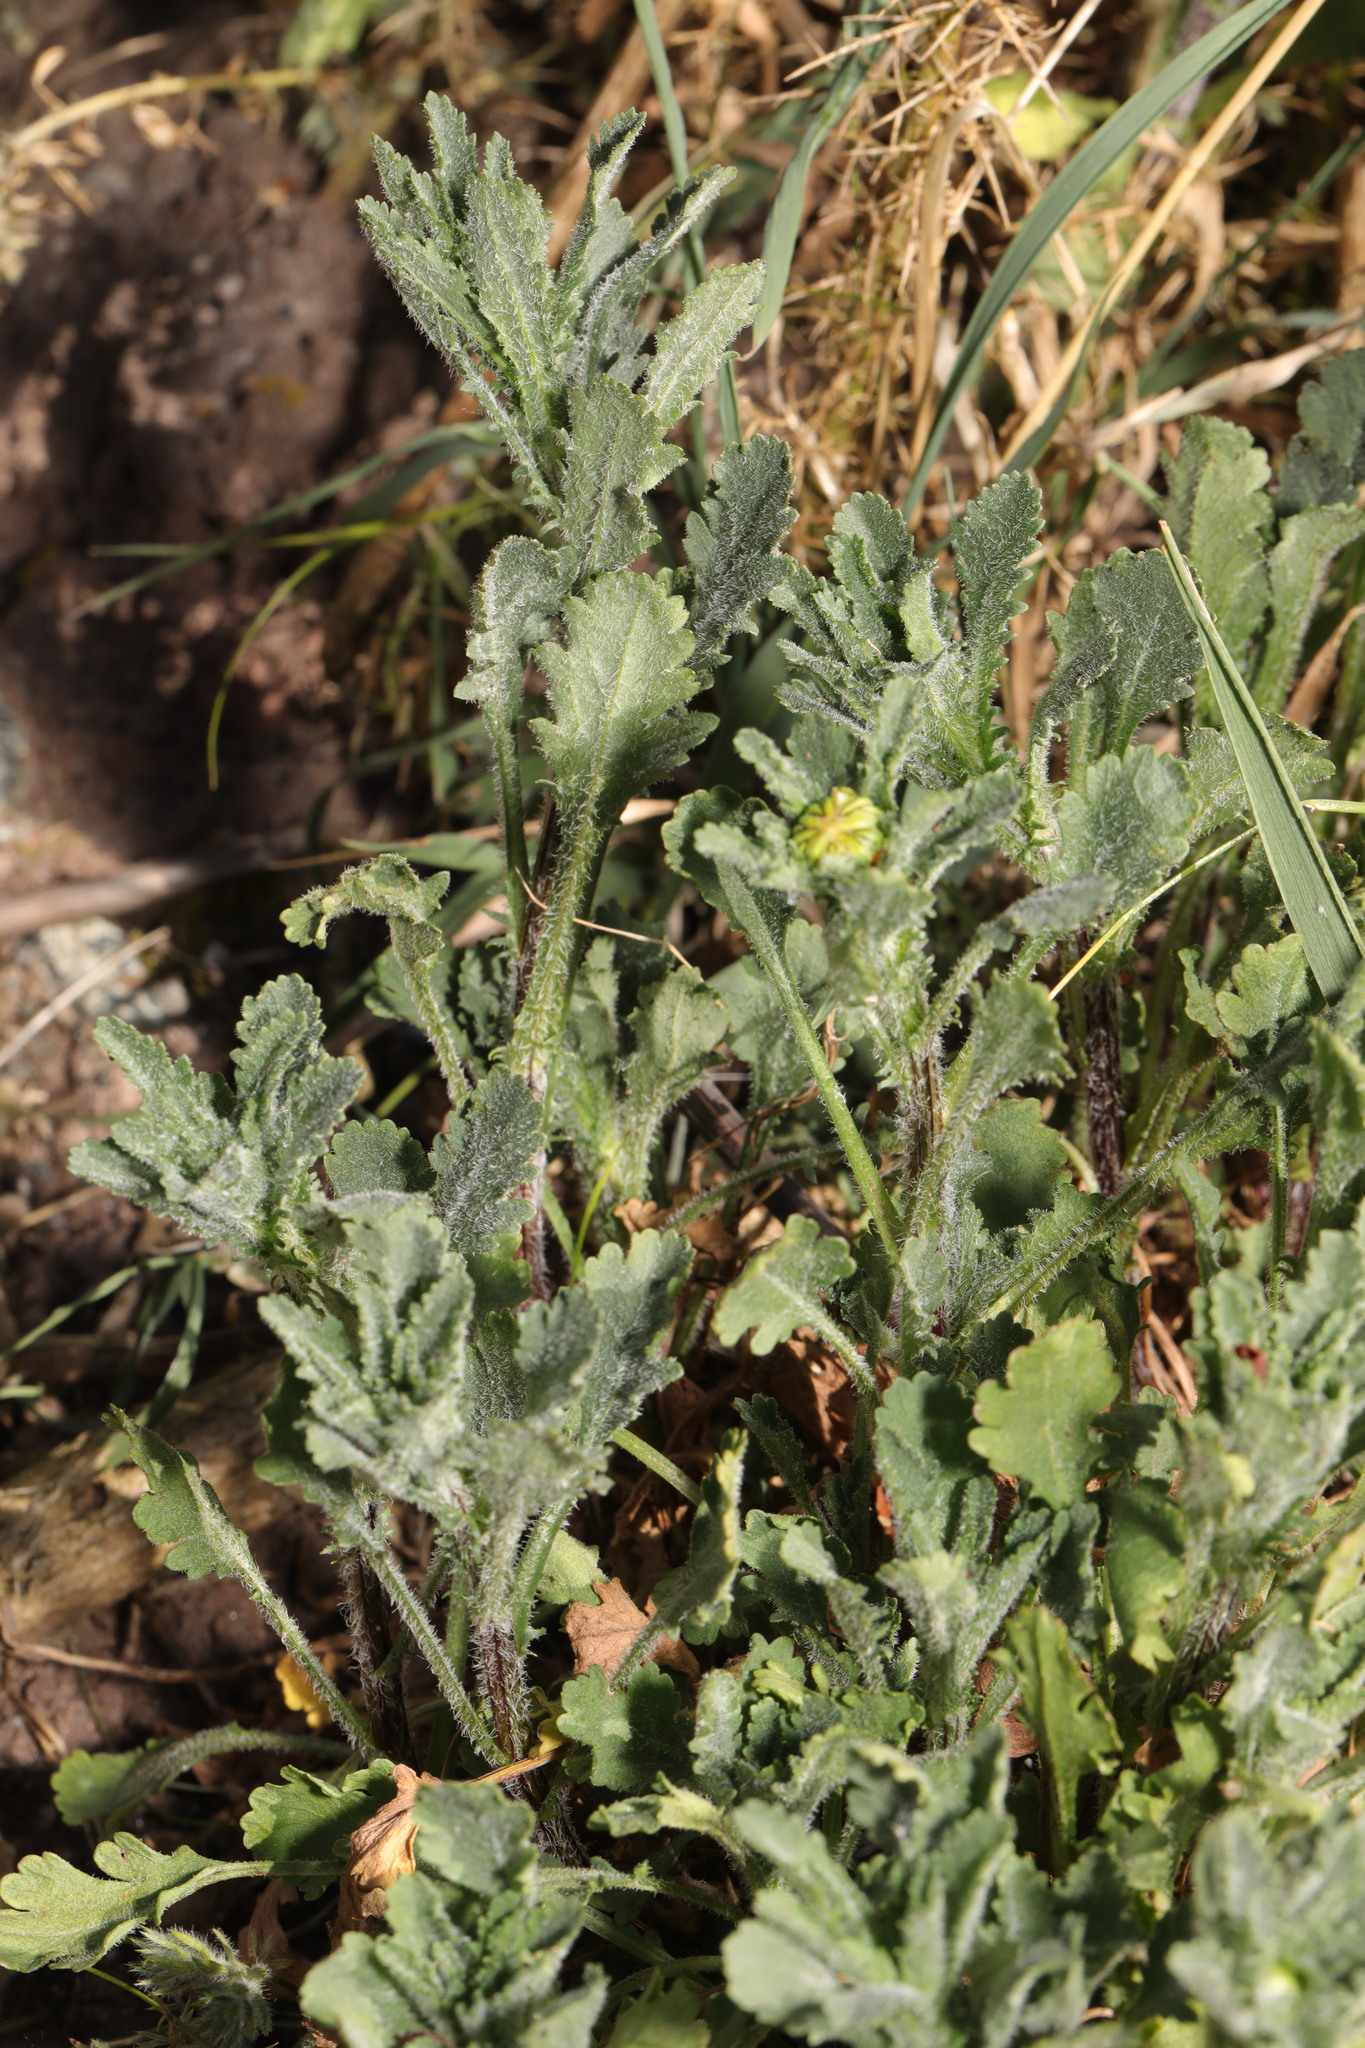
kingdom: Plantae
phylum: Tracheophyta
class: Magnoliopsida
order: Asterales
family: Asteraceae
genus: Leucanthemum
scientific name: Leucanthemum vulgare
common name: Oxeye daisy
